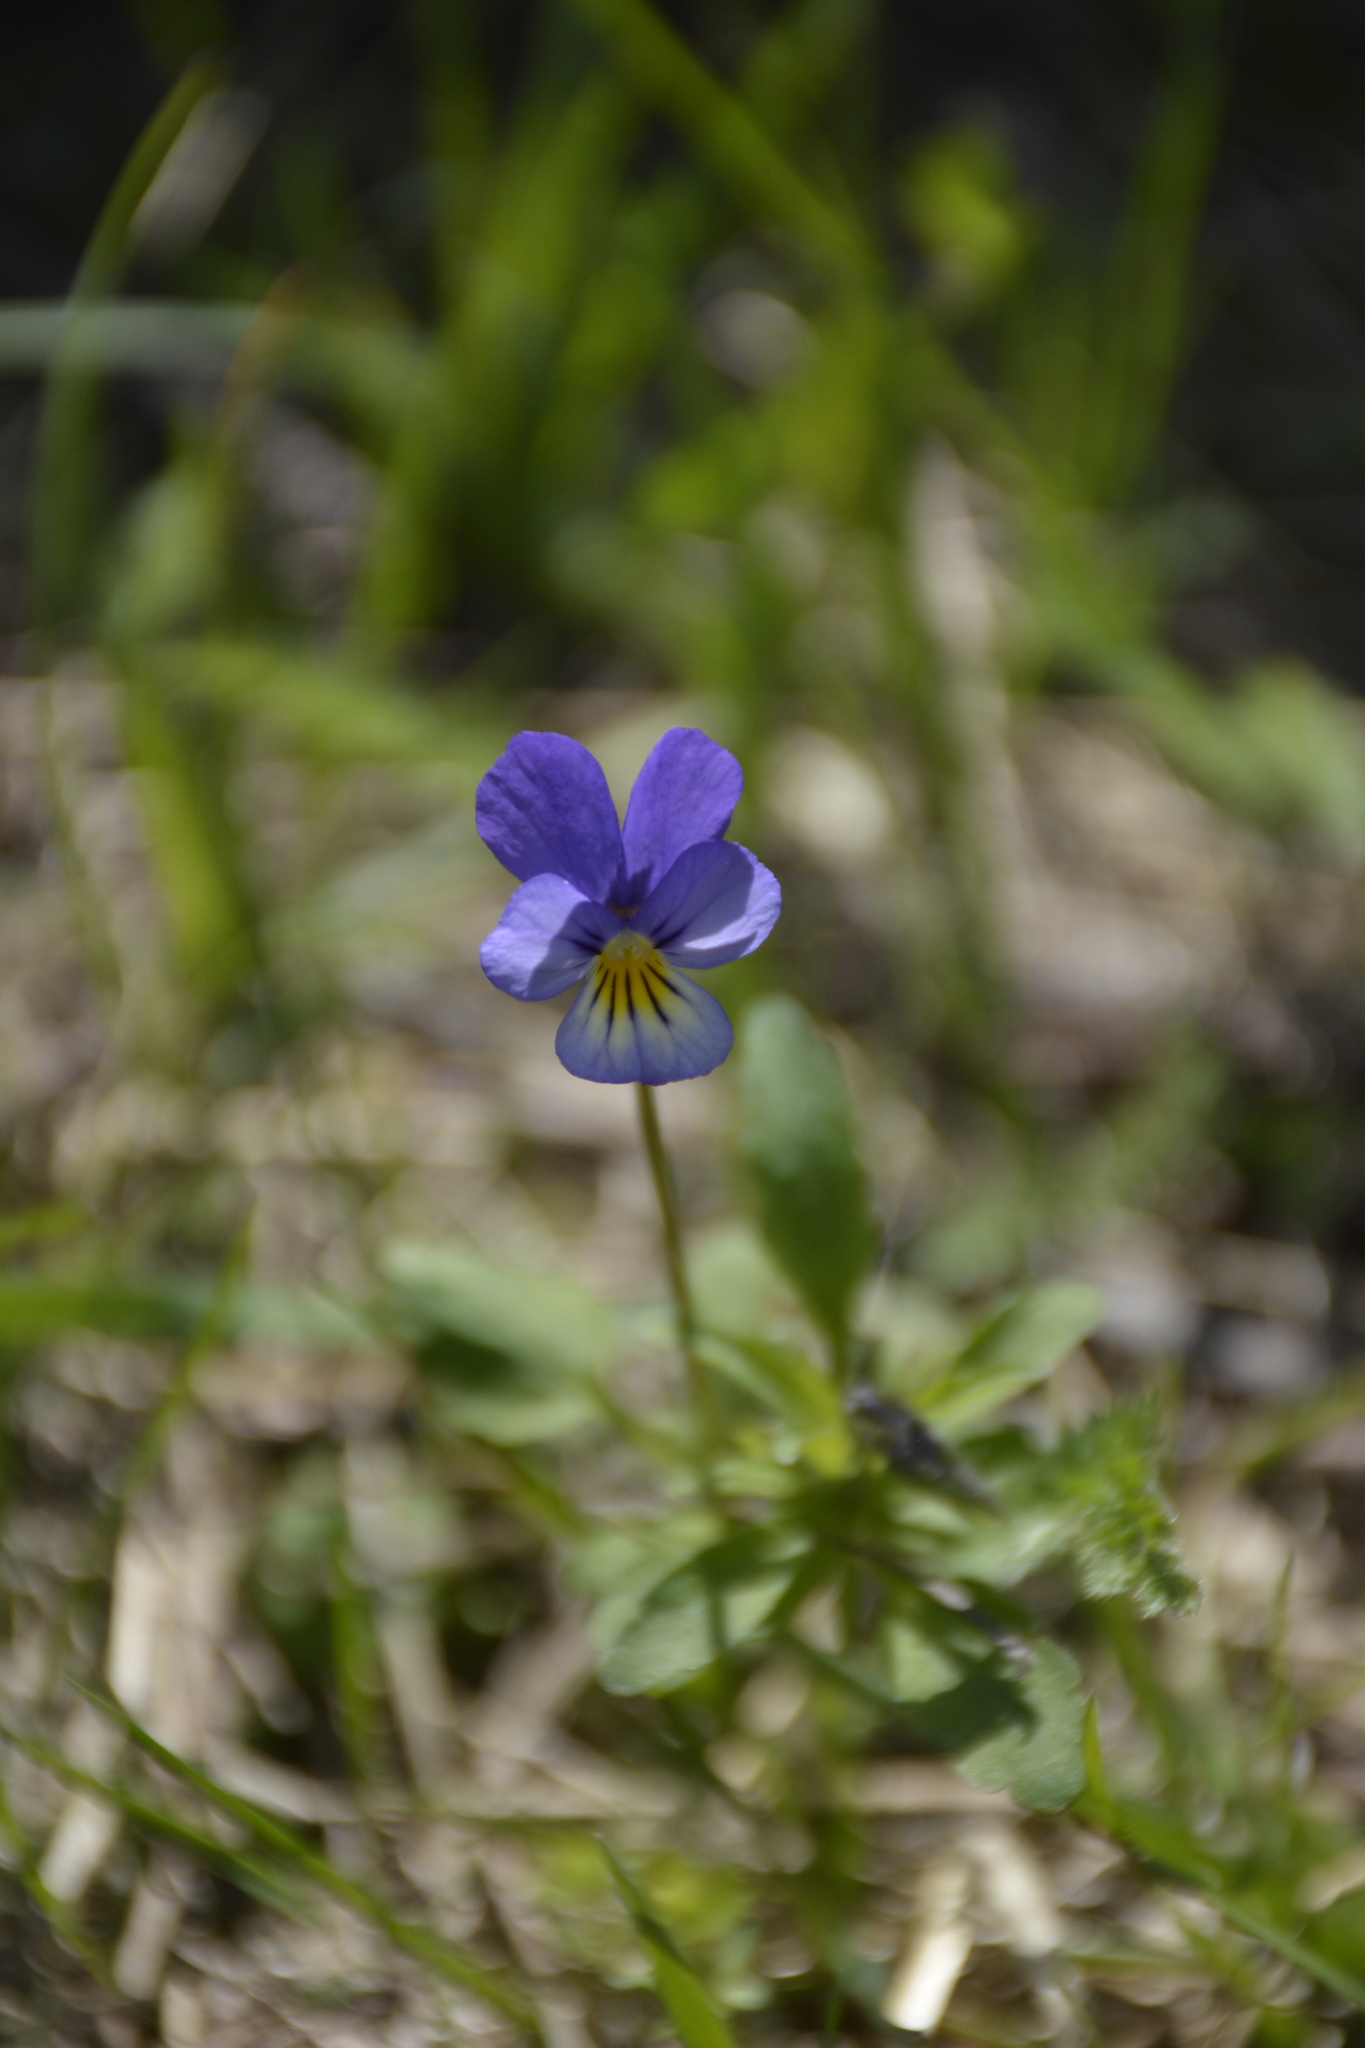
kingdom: Plantae
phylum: Tracheophyta
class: Magnoliopsida
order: Malpighiales
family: Violaceae
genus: Viola
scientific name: Viola tricolor
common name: Pansy
